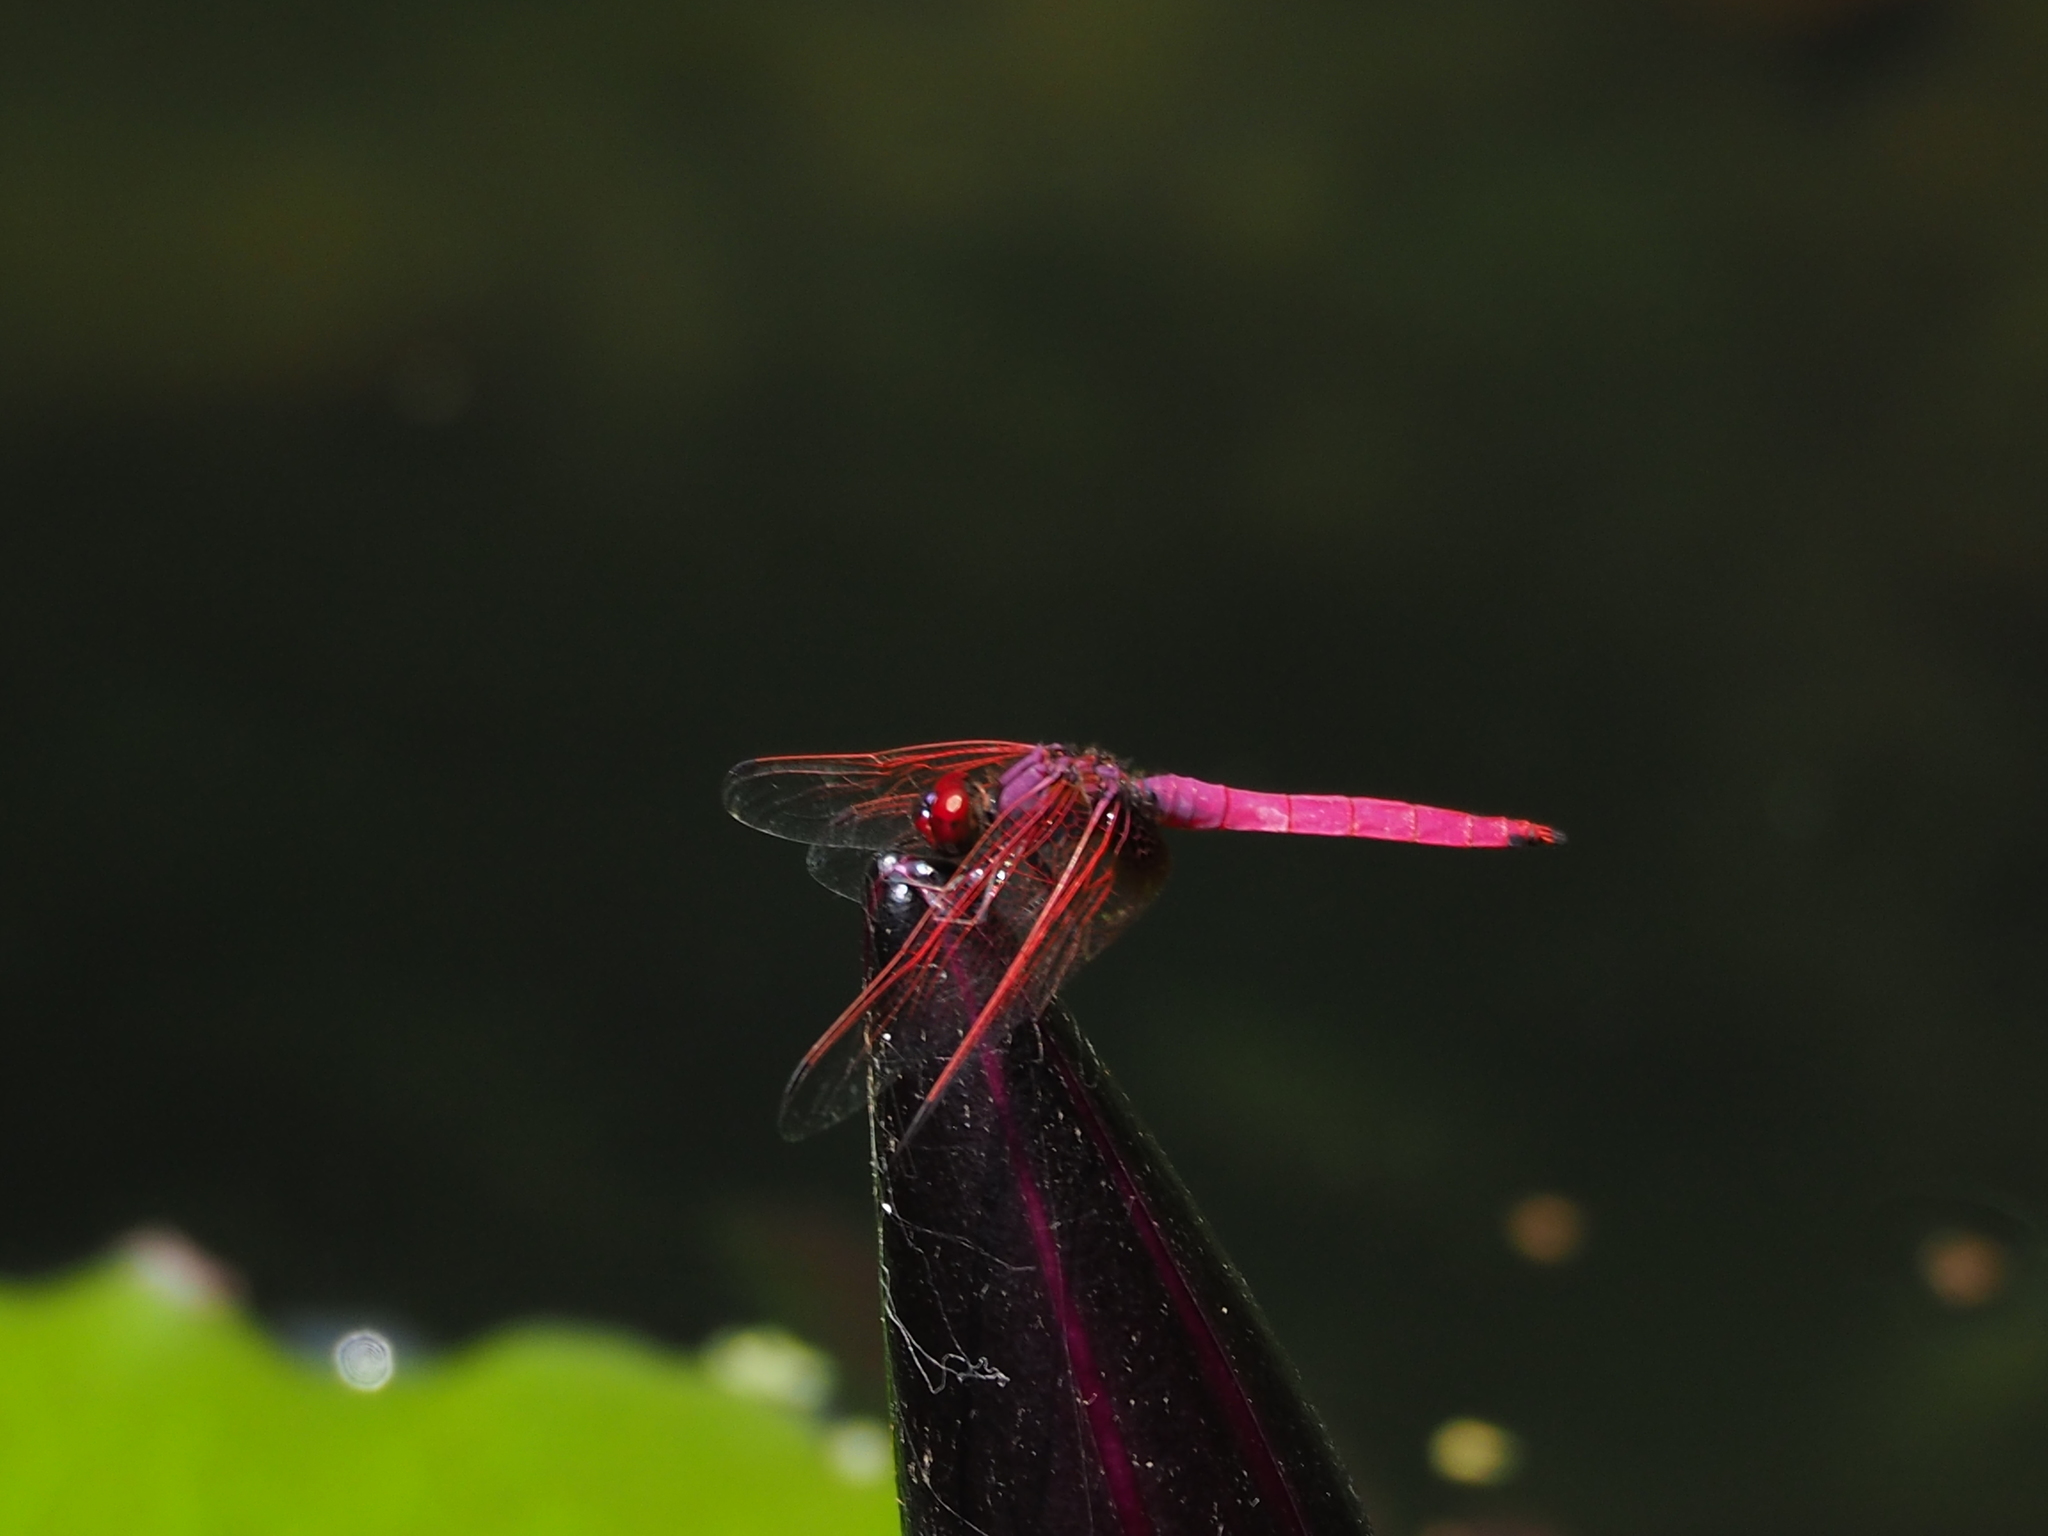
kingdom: Animalia
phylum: Arthropoda
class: Insecta
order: Odonata
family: Libellulidae
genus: Trithemis
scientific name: Trithemis aurora
